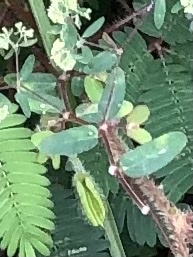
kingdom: Plantae
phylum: Tracheophyta
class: Magnoliopsida
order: Malpighiales
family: Euphorbiaceae
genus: Euphorbia
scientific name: Euphorbia lasiocarpa
